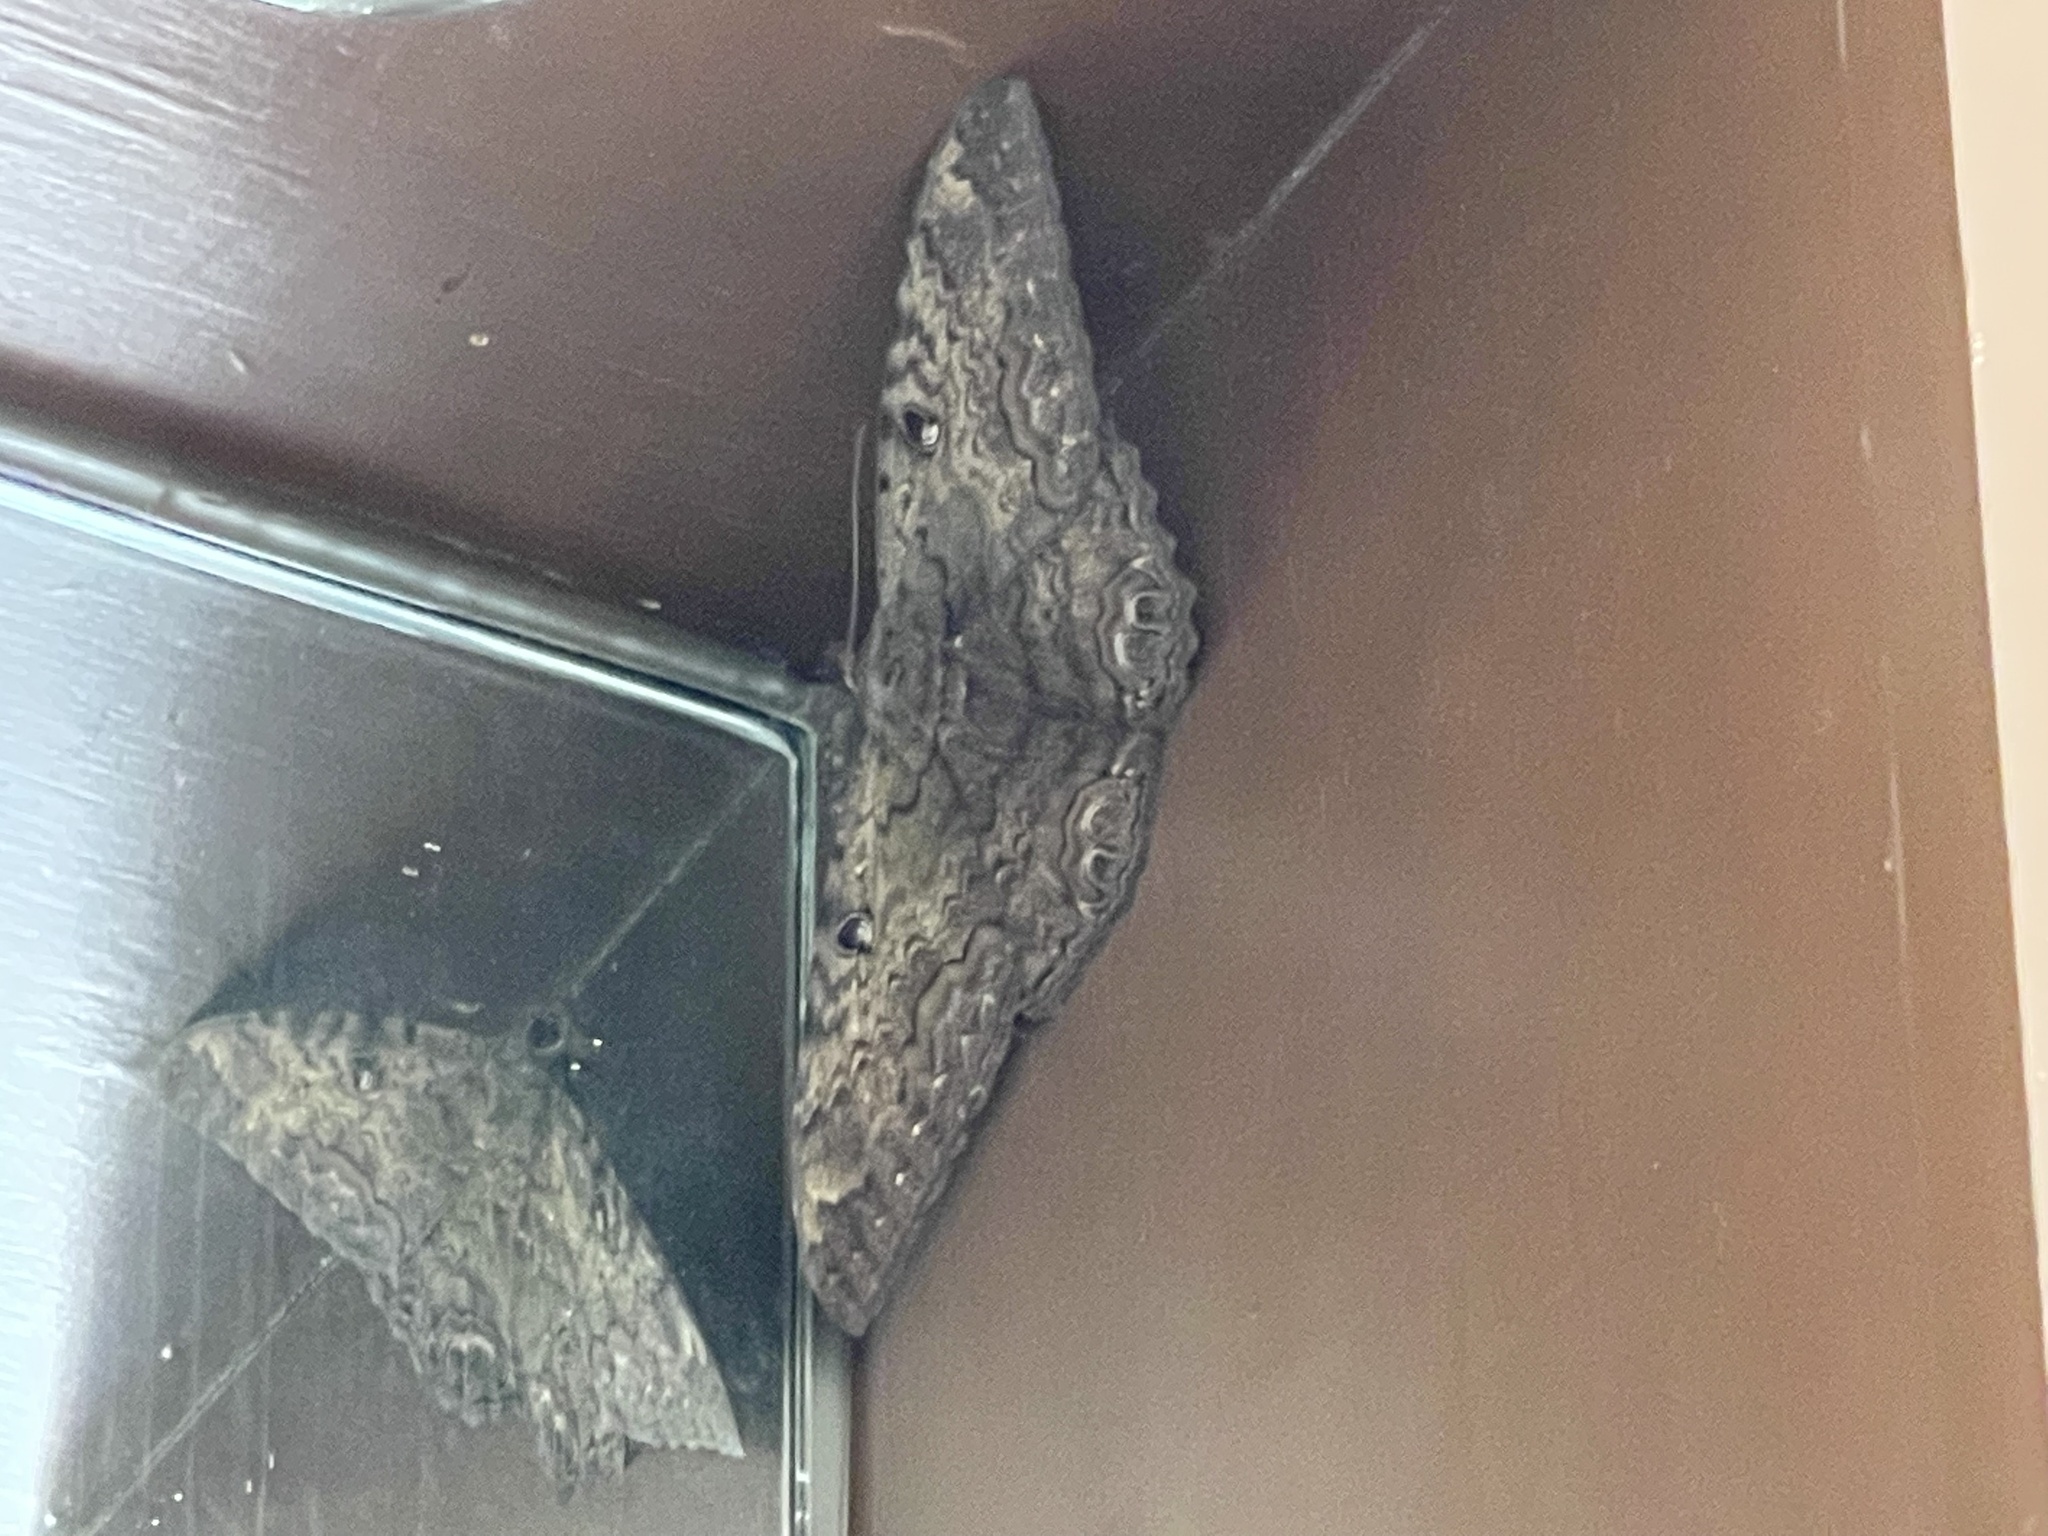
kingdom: Animalia
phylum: Arthropoda
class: Insecta
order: Lepidoptera
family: Erebidae
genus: Ascalapha
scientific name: Ascalapha odorata
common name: Black witch
